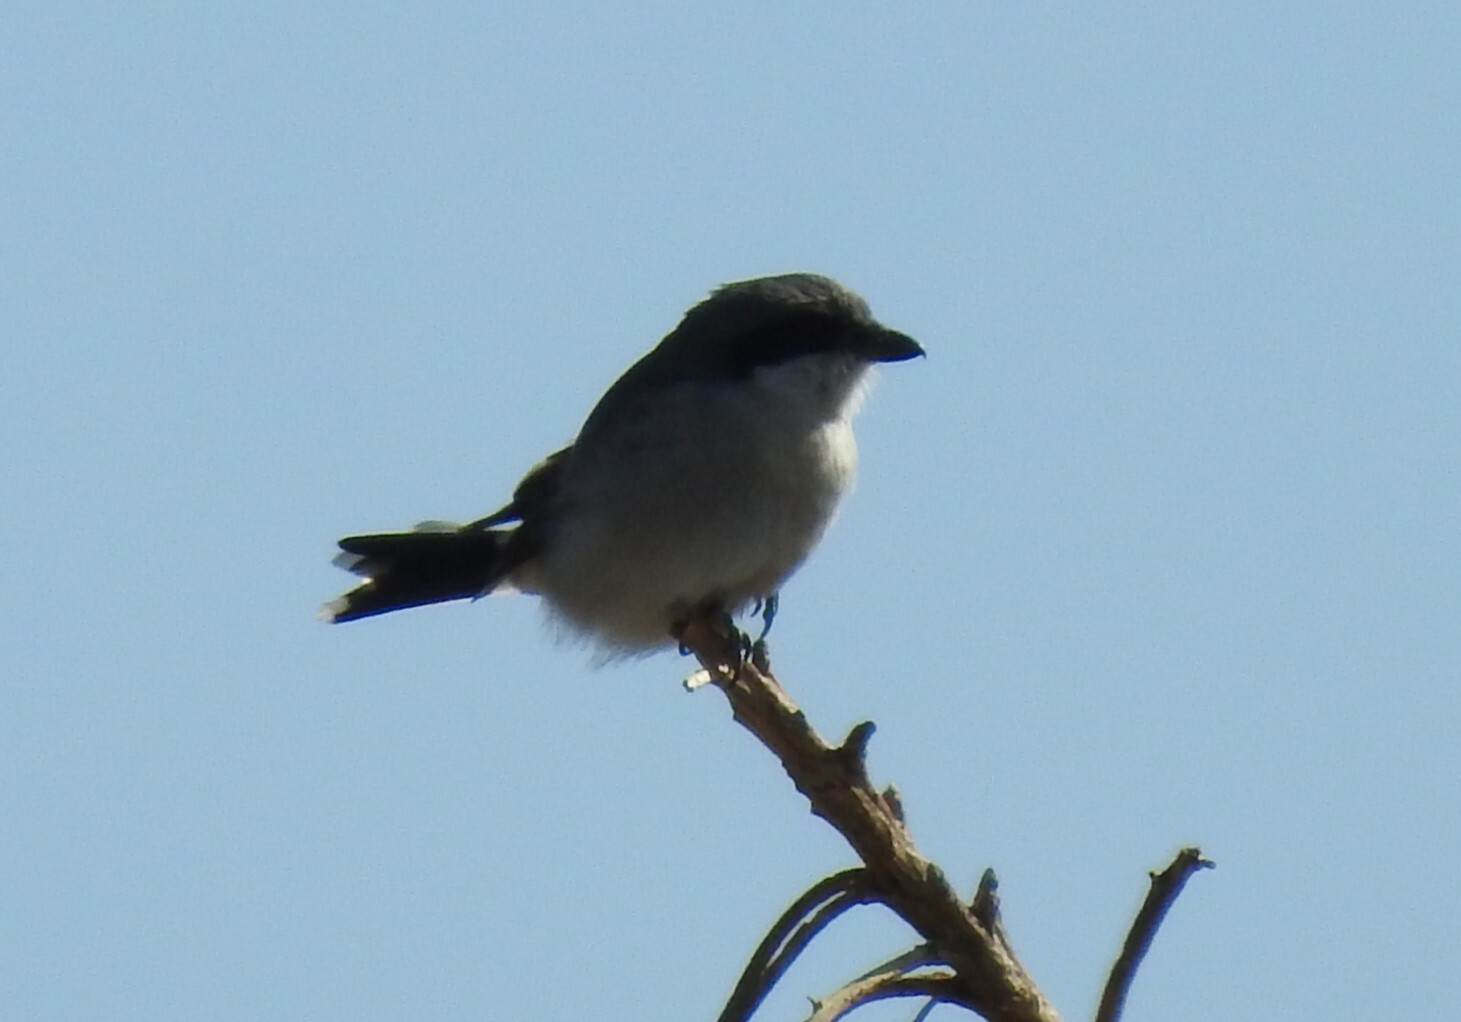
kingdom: Animalia
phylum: Chordata
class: Aves
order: Passeriformes
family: Laniidae
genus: Lanius
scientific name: Lanius ludovicianus
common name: Loggerhead shrike
